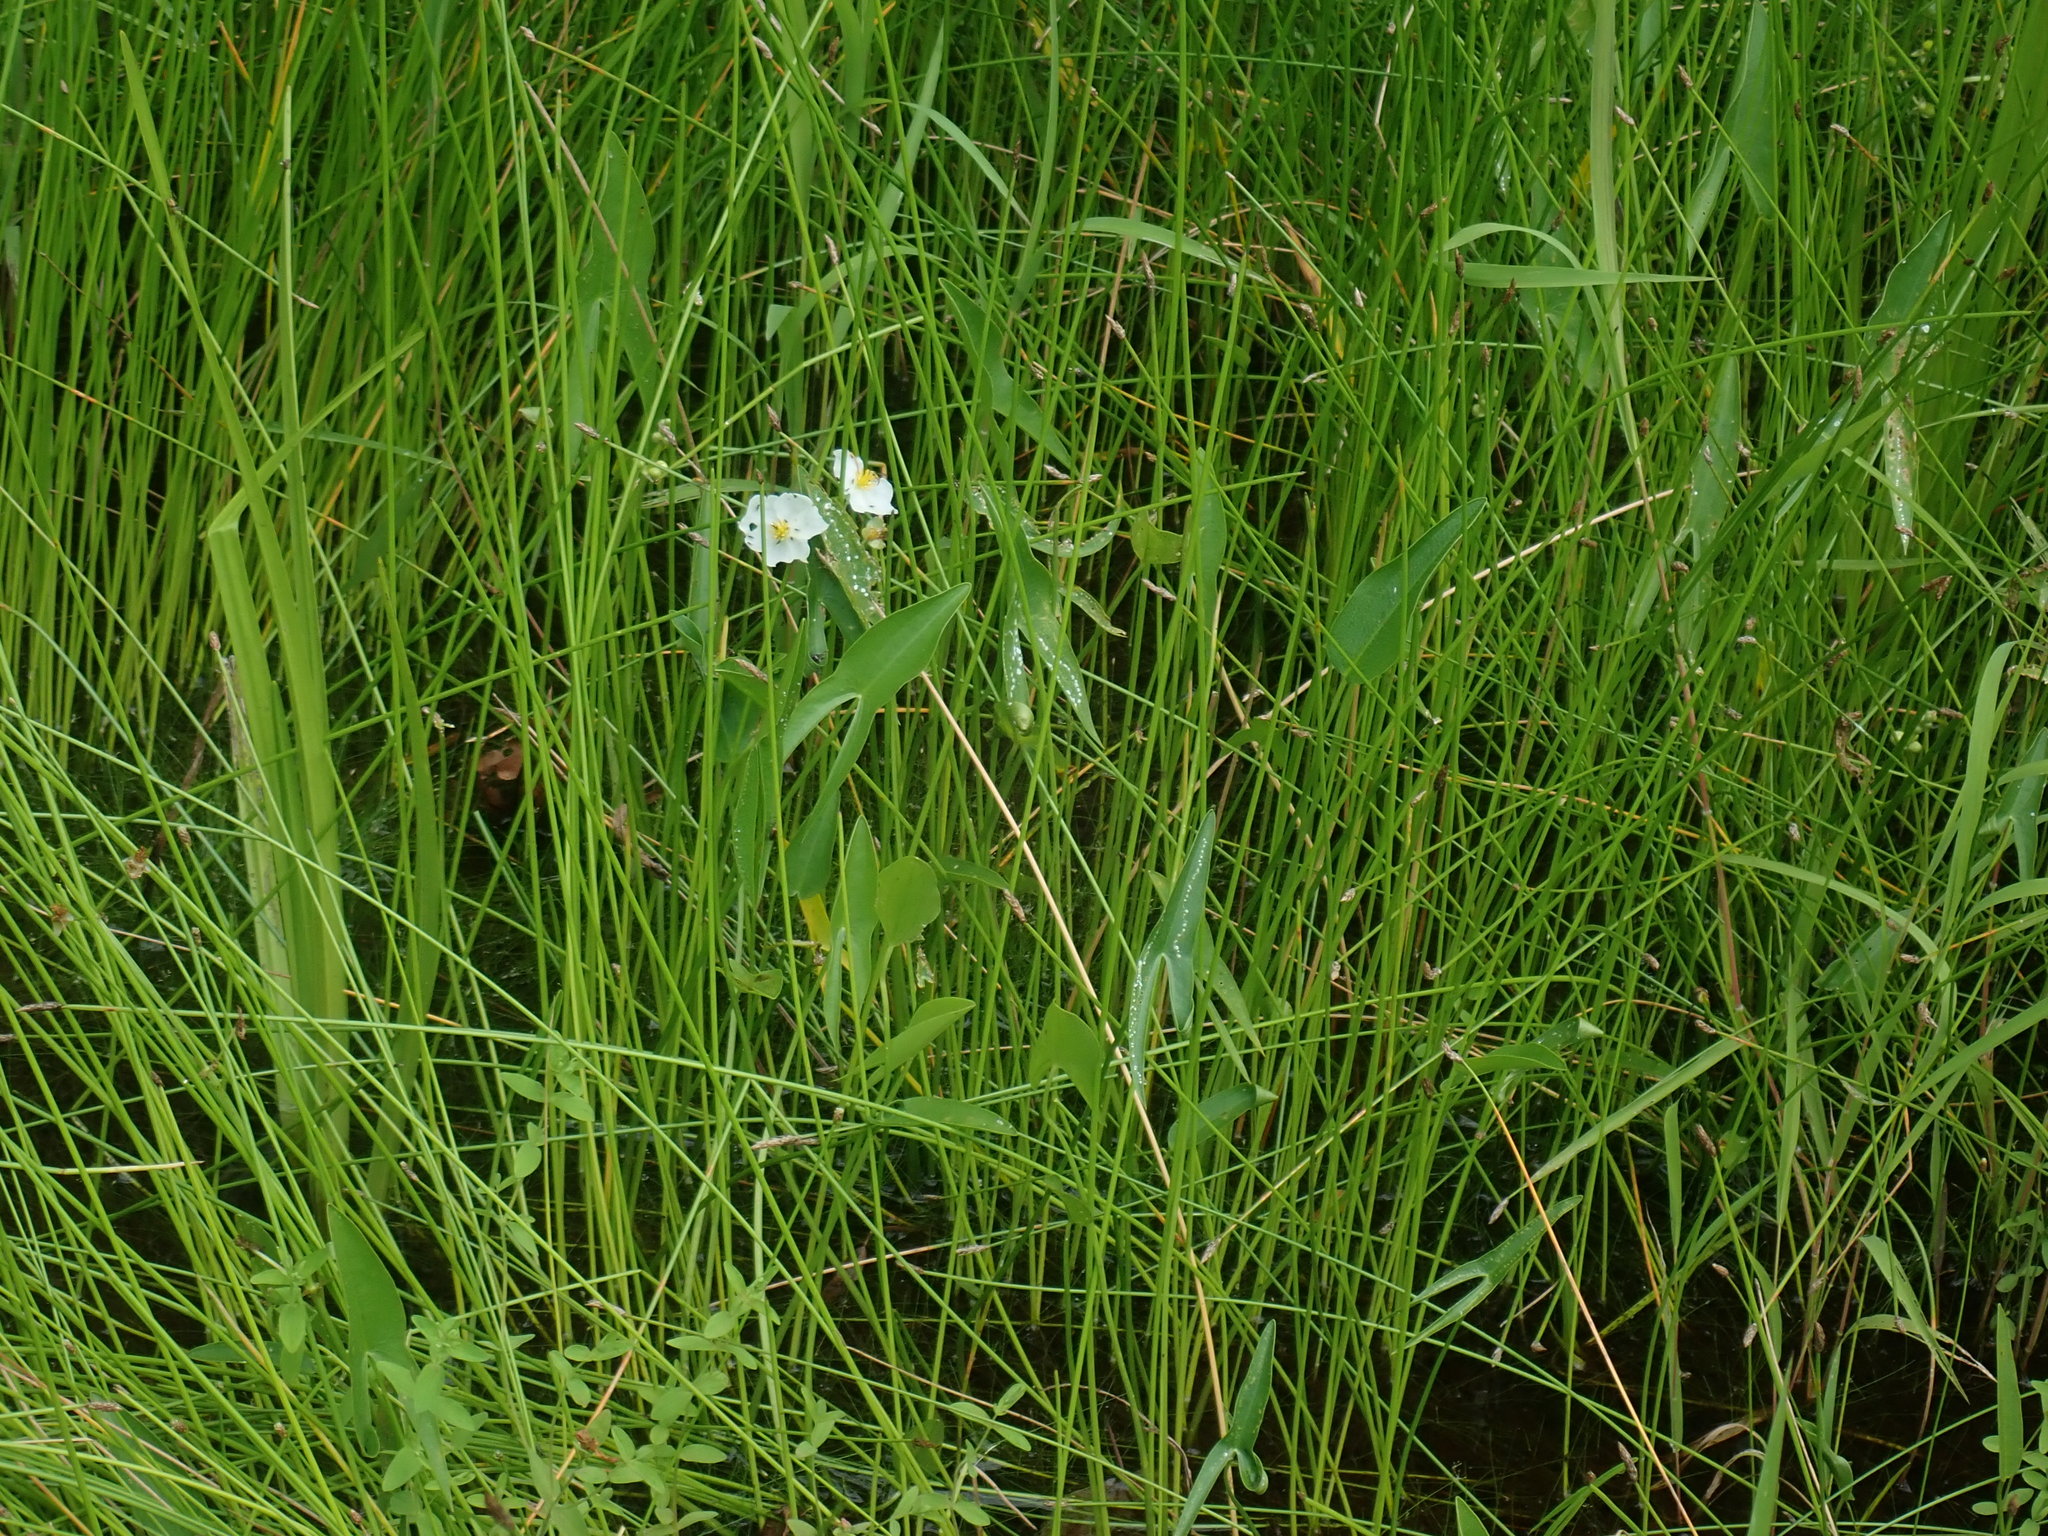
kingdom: Plantae
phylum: Tracheophyta
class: Liliopsida
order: Alismatales
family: Alismataceae
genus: Sagittaria
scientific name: Sagittaria latifolia
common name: Duck-potato
